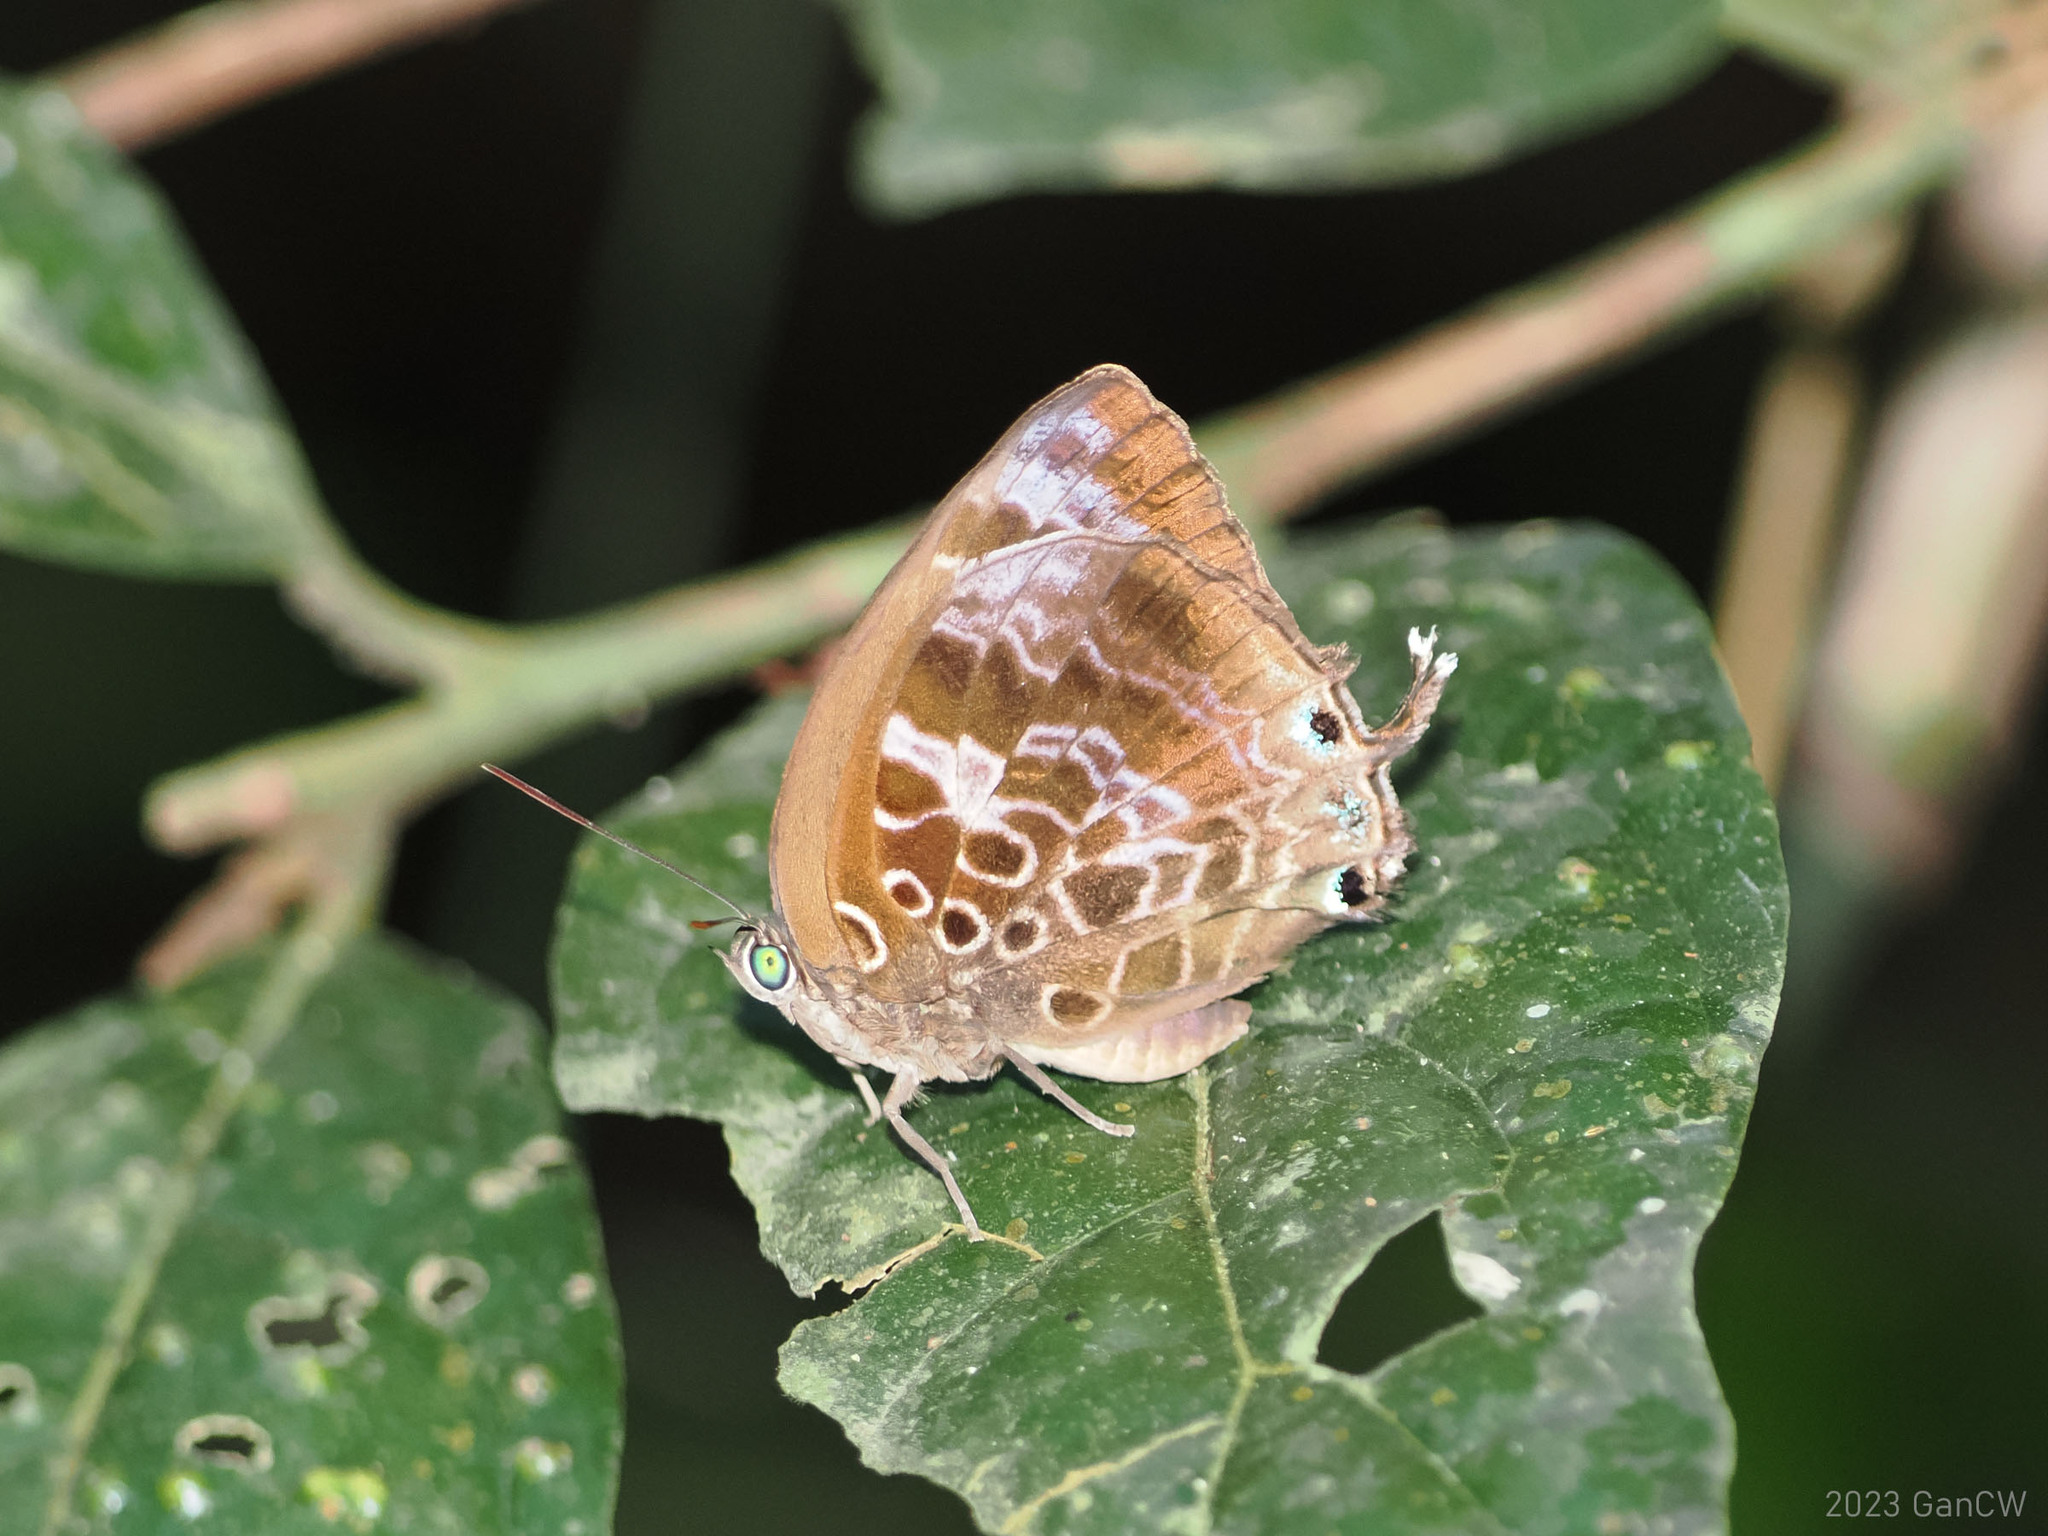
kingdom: Animalia
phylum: Arthropoda
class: Insecta
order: Lepidoptera
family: Lycaenidae
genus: Arhopala
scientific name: Arhopala centaurus
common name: Dull oak-blue
